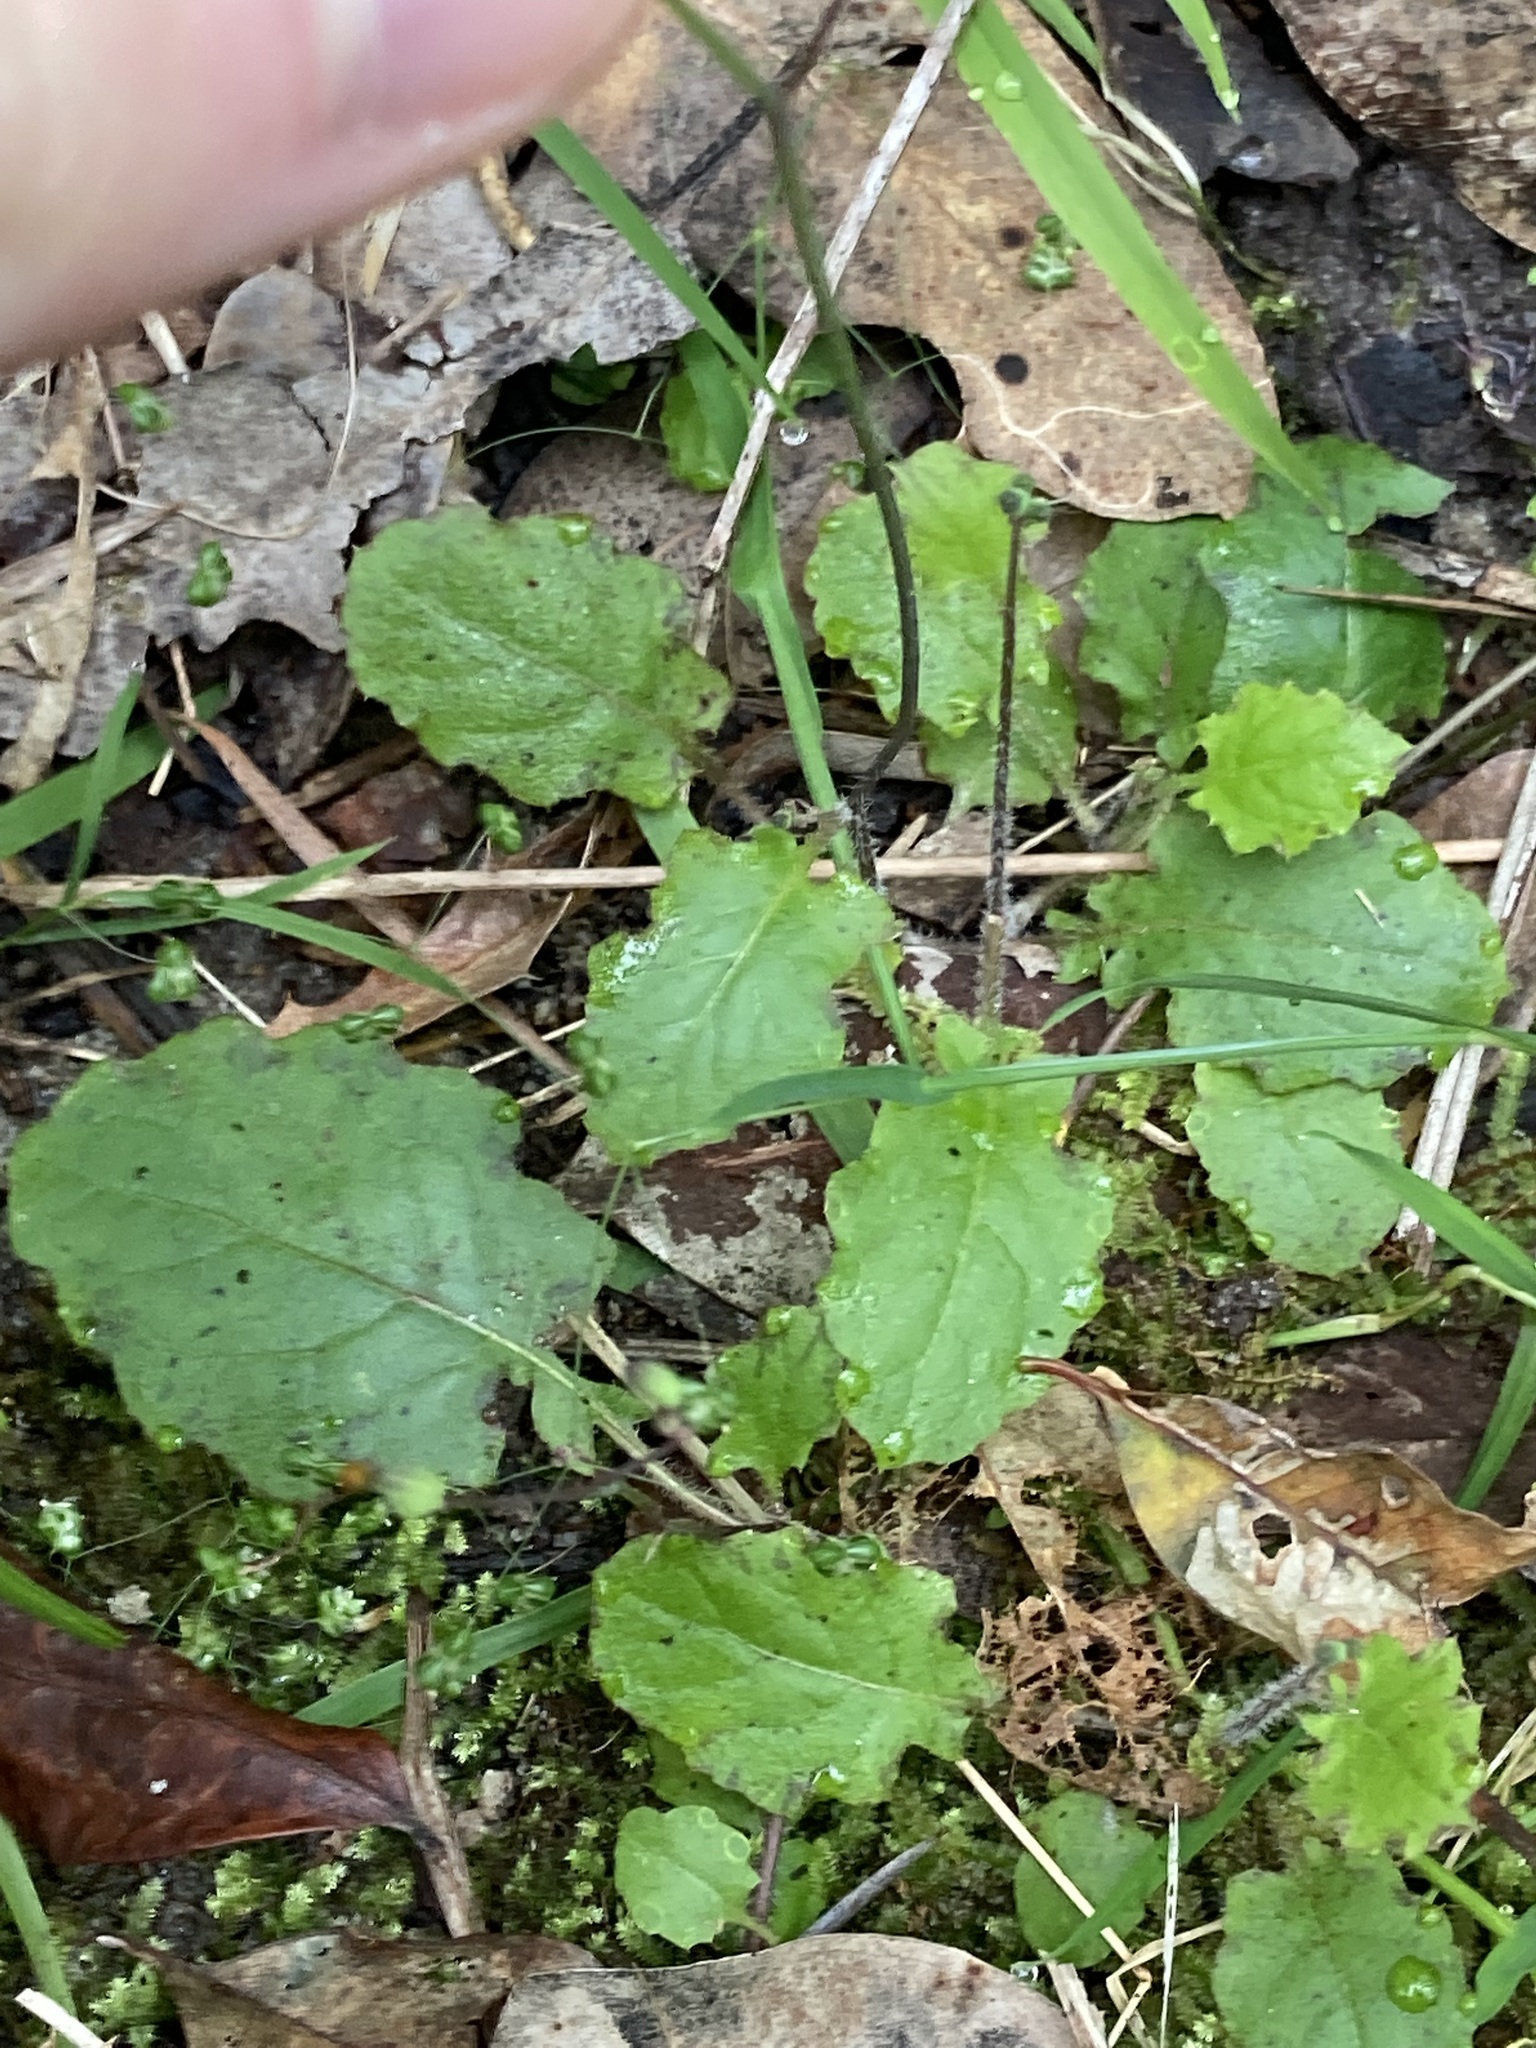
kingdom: Plantae
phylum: Tracheophyta
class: Magnoliopsida
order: Asterales
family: Asteraceae
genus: Youngia
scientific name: Youngia japonica
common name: Oriental false hawksbeard
